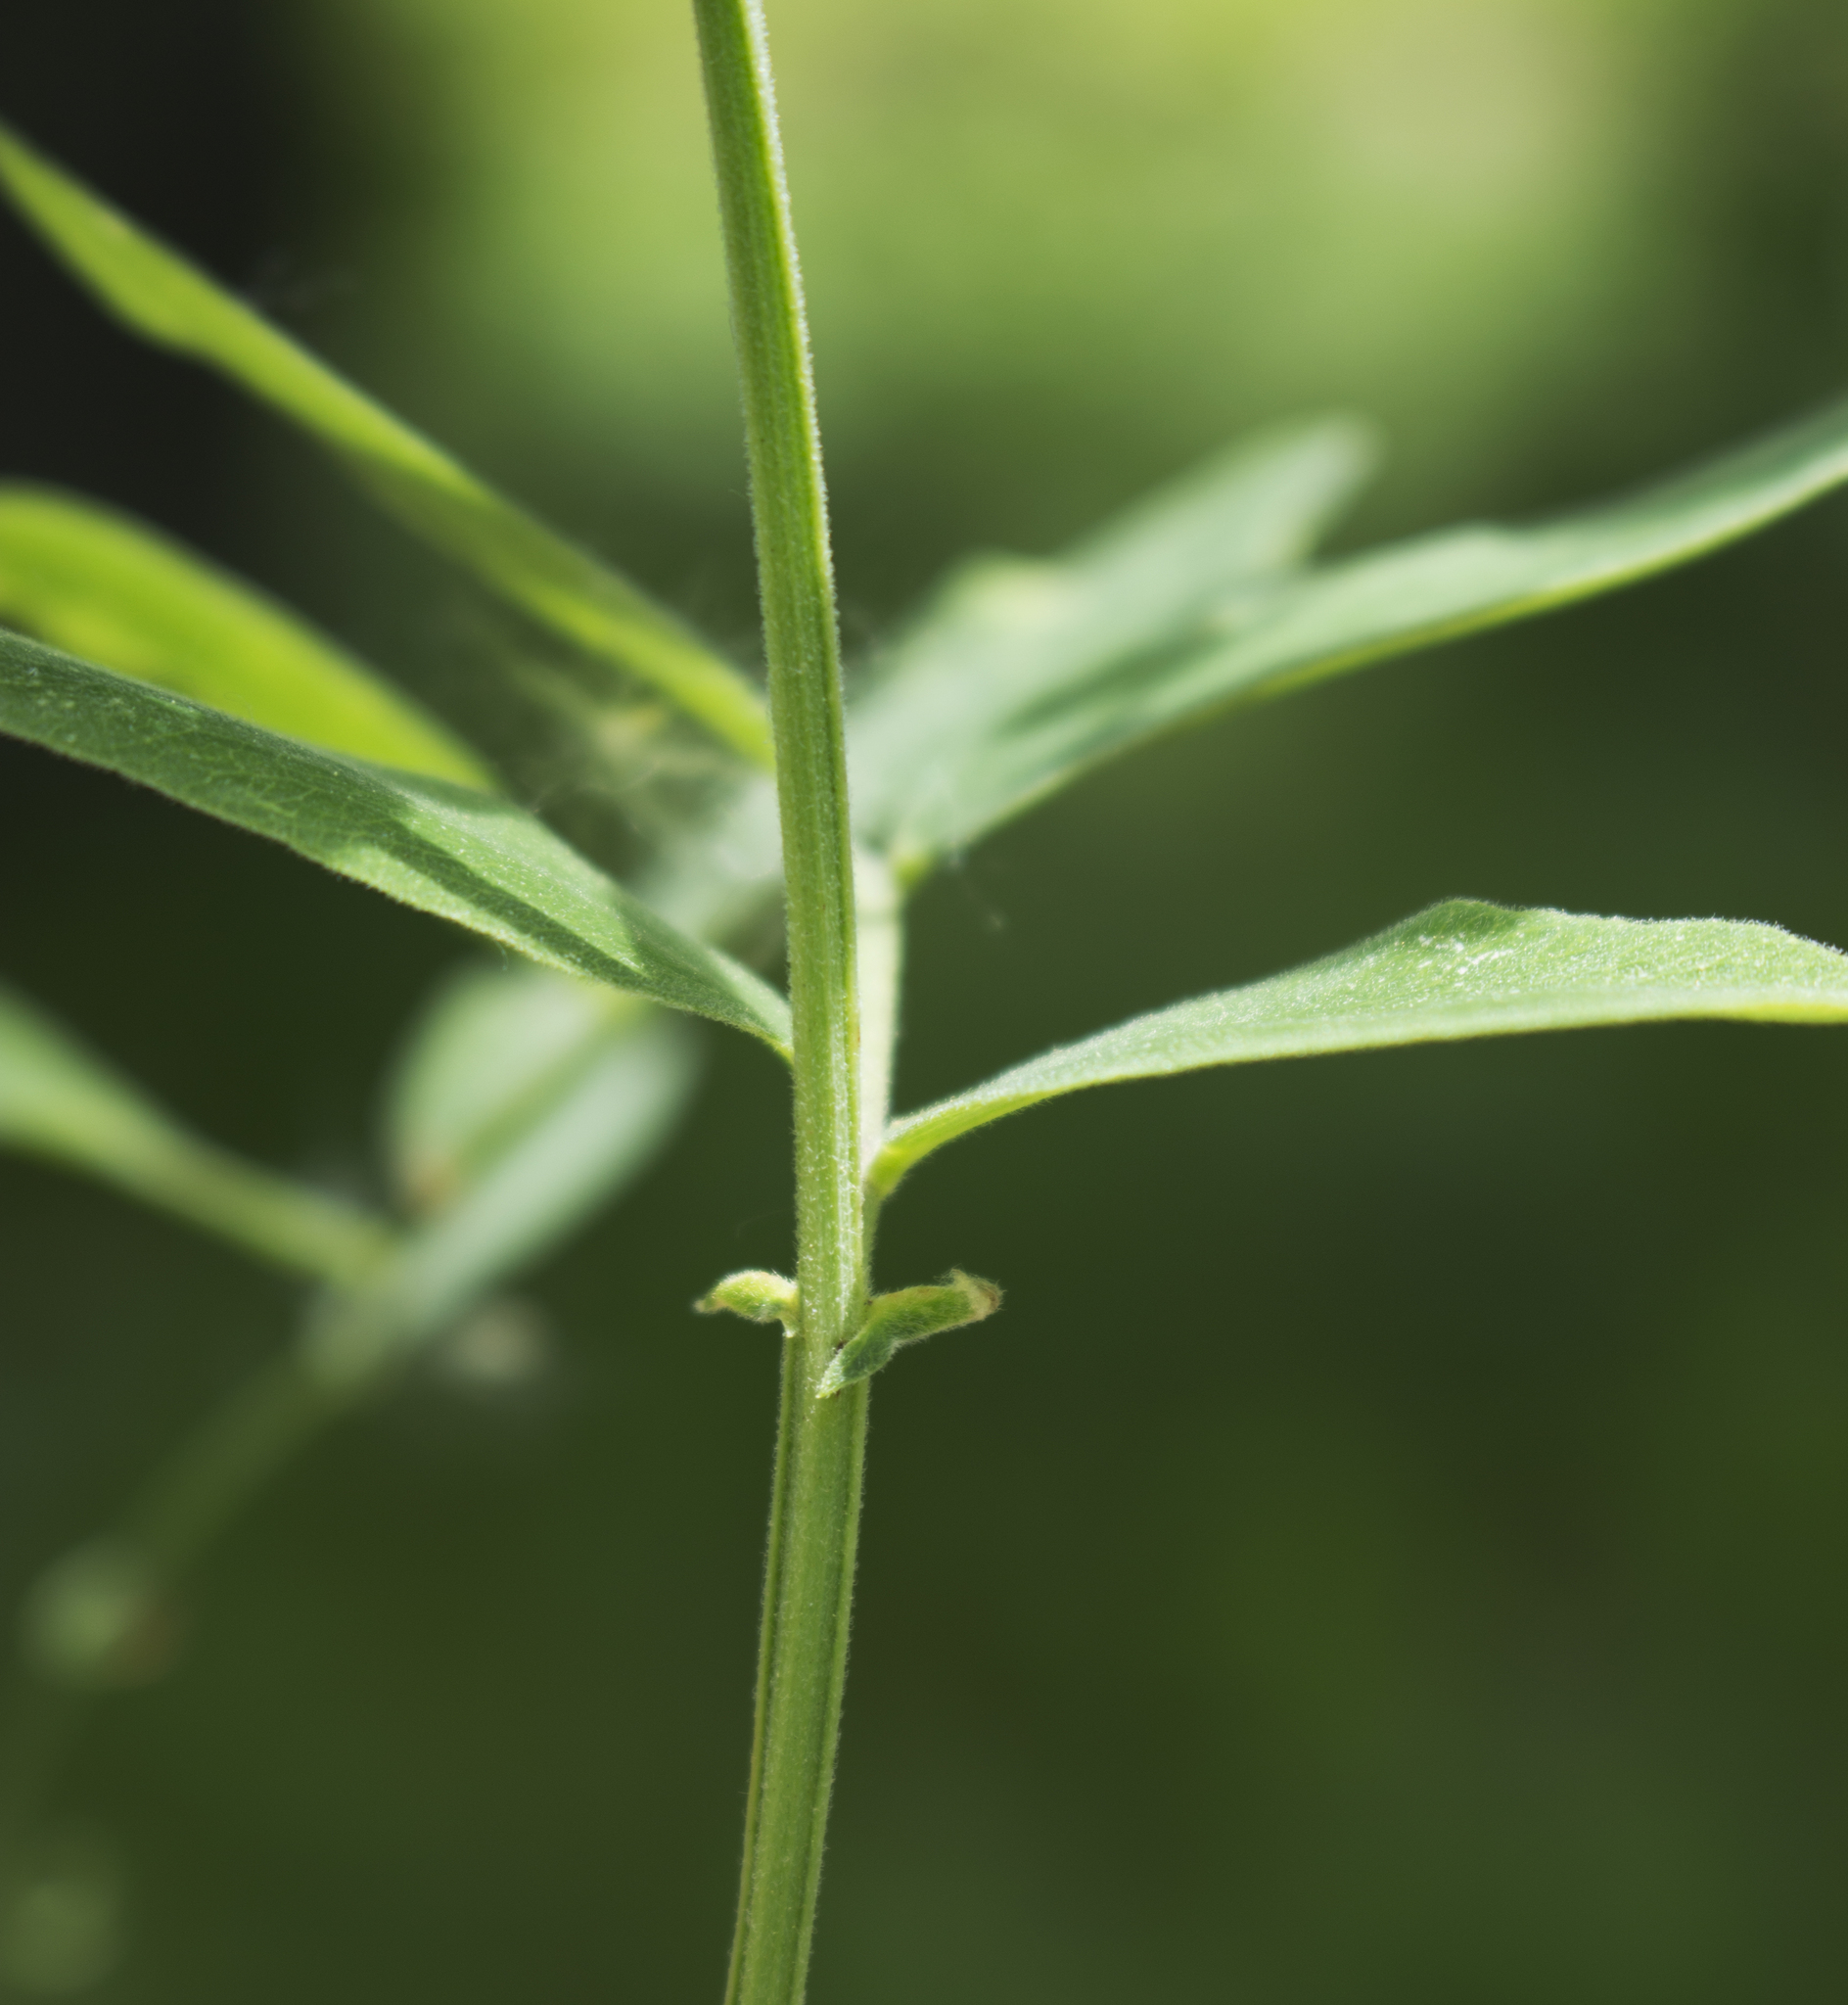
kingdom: Plantae
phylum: Tracheophyta
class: Magnoliopsida
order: Fabales
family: Fabaceae
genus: Lathyrus
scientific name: Lathyrus venosus
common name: Forest-pea
